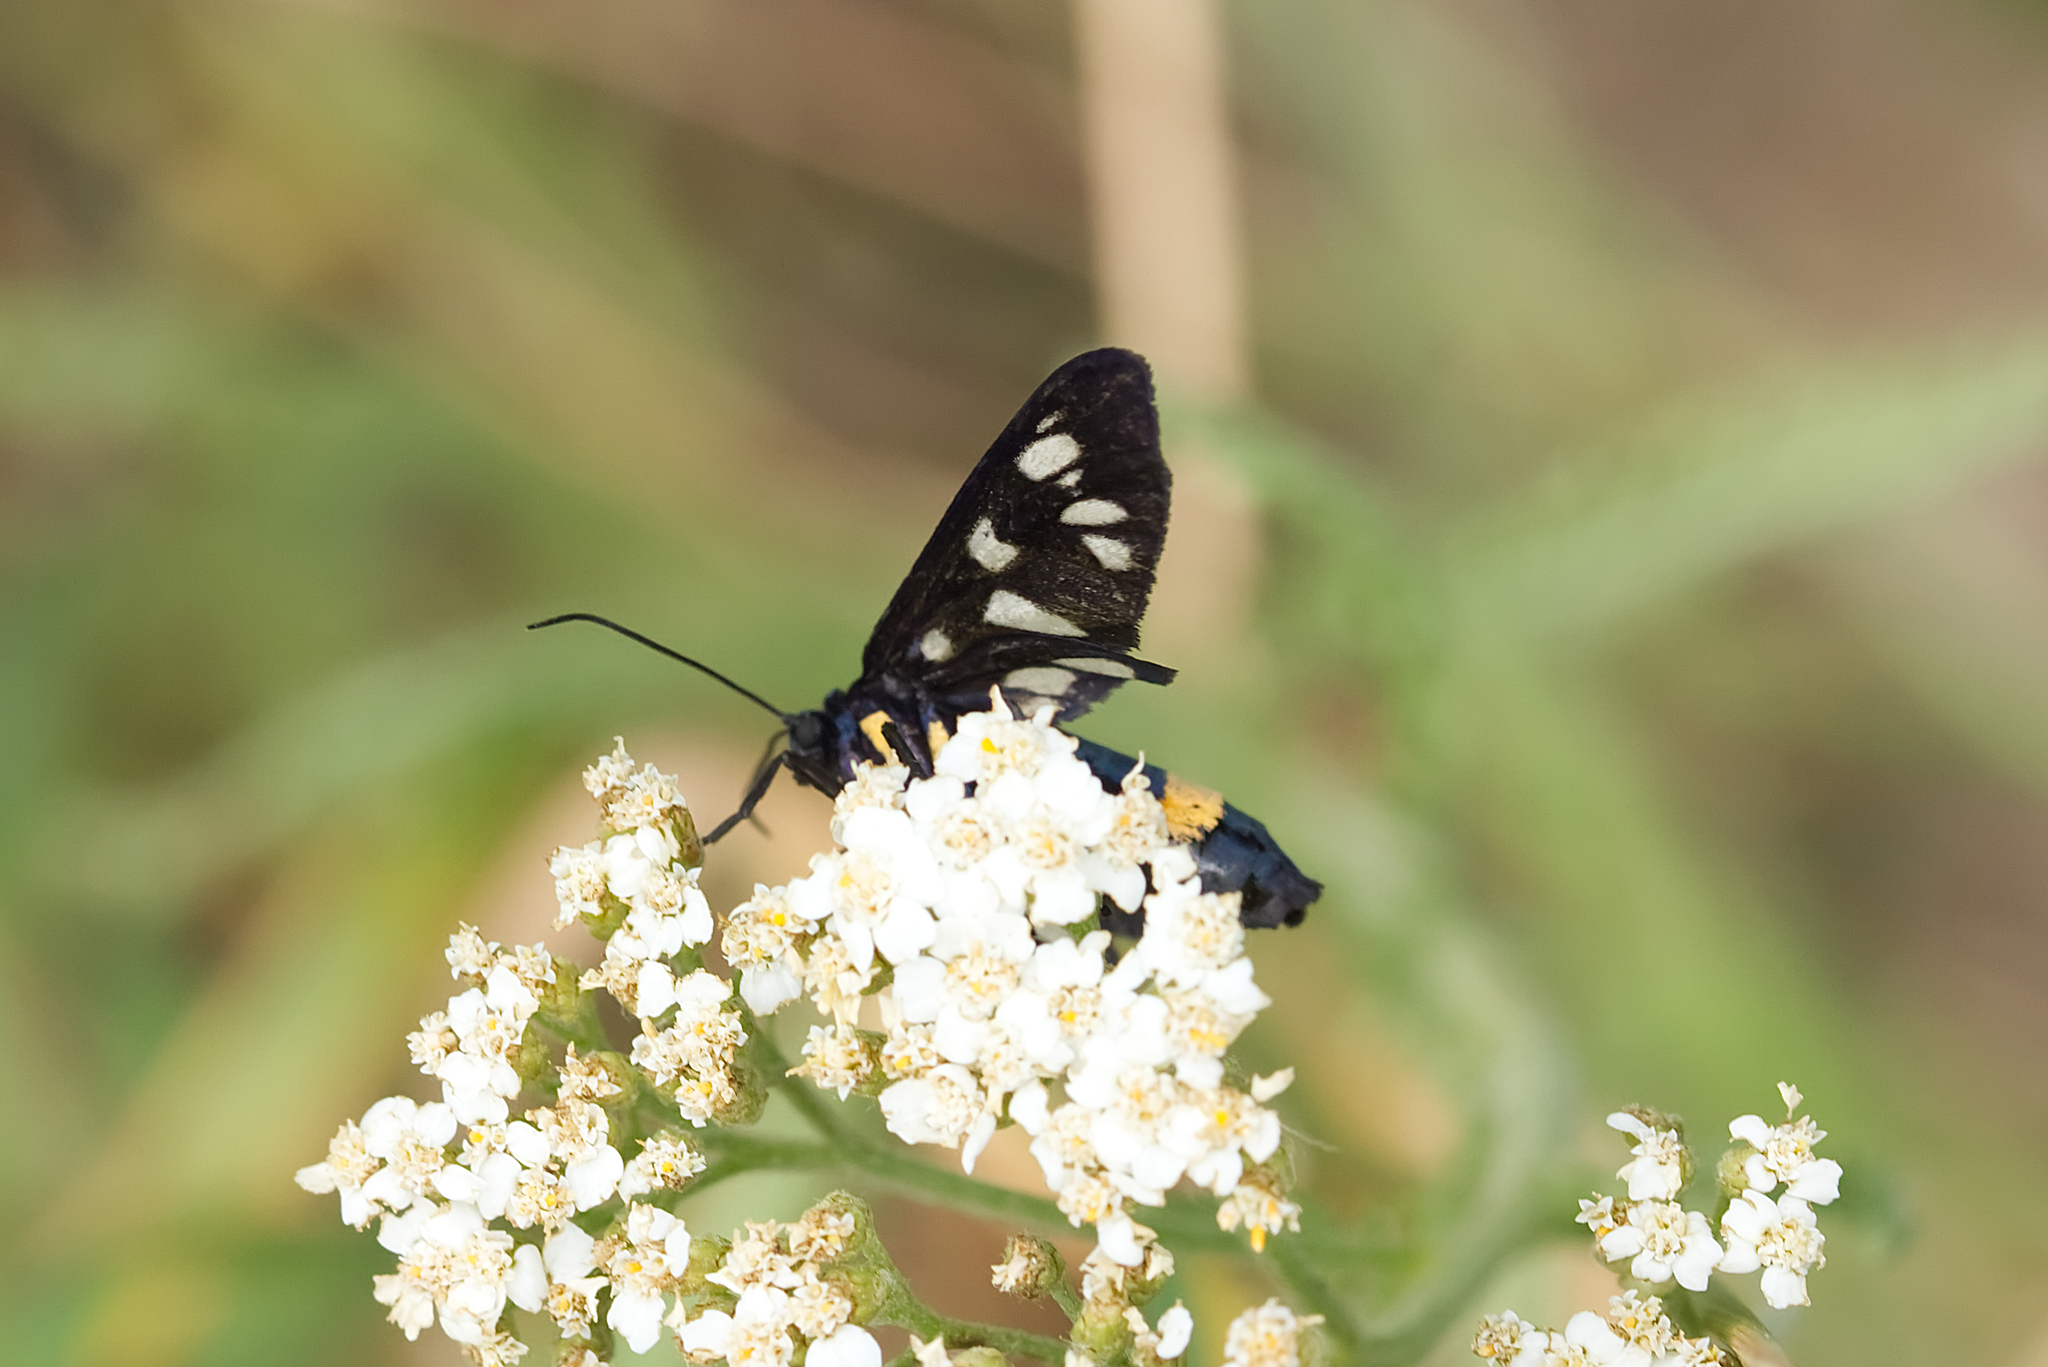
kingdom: Animalia
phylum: Arthropoda
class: Insecta
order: Lepidoptera
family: Erebidae
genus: Amata
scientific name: Amata phegea
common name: Nine-spotted
